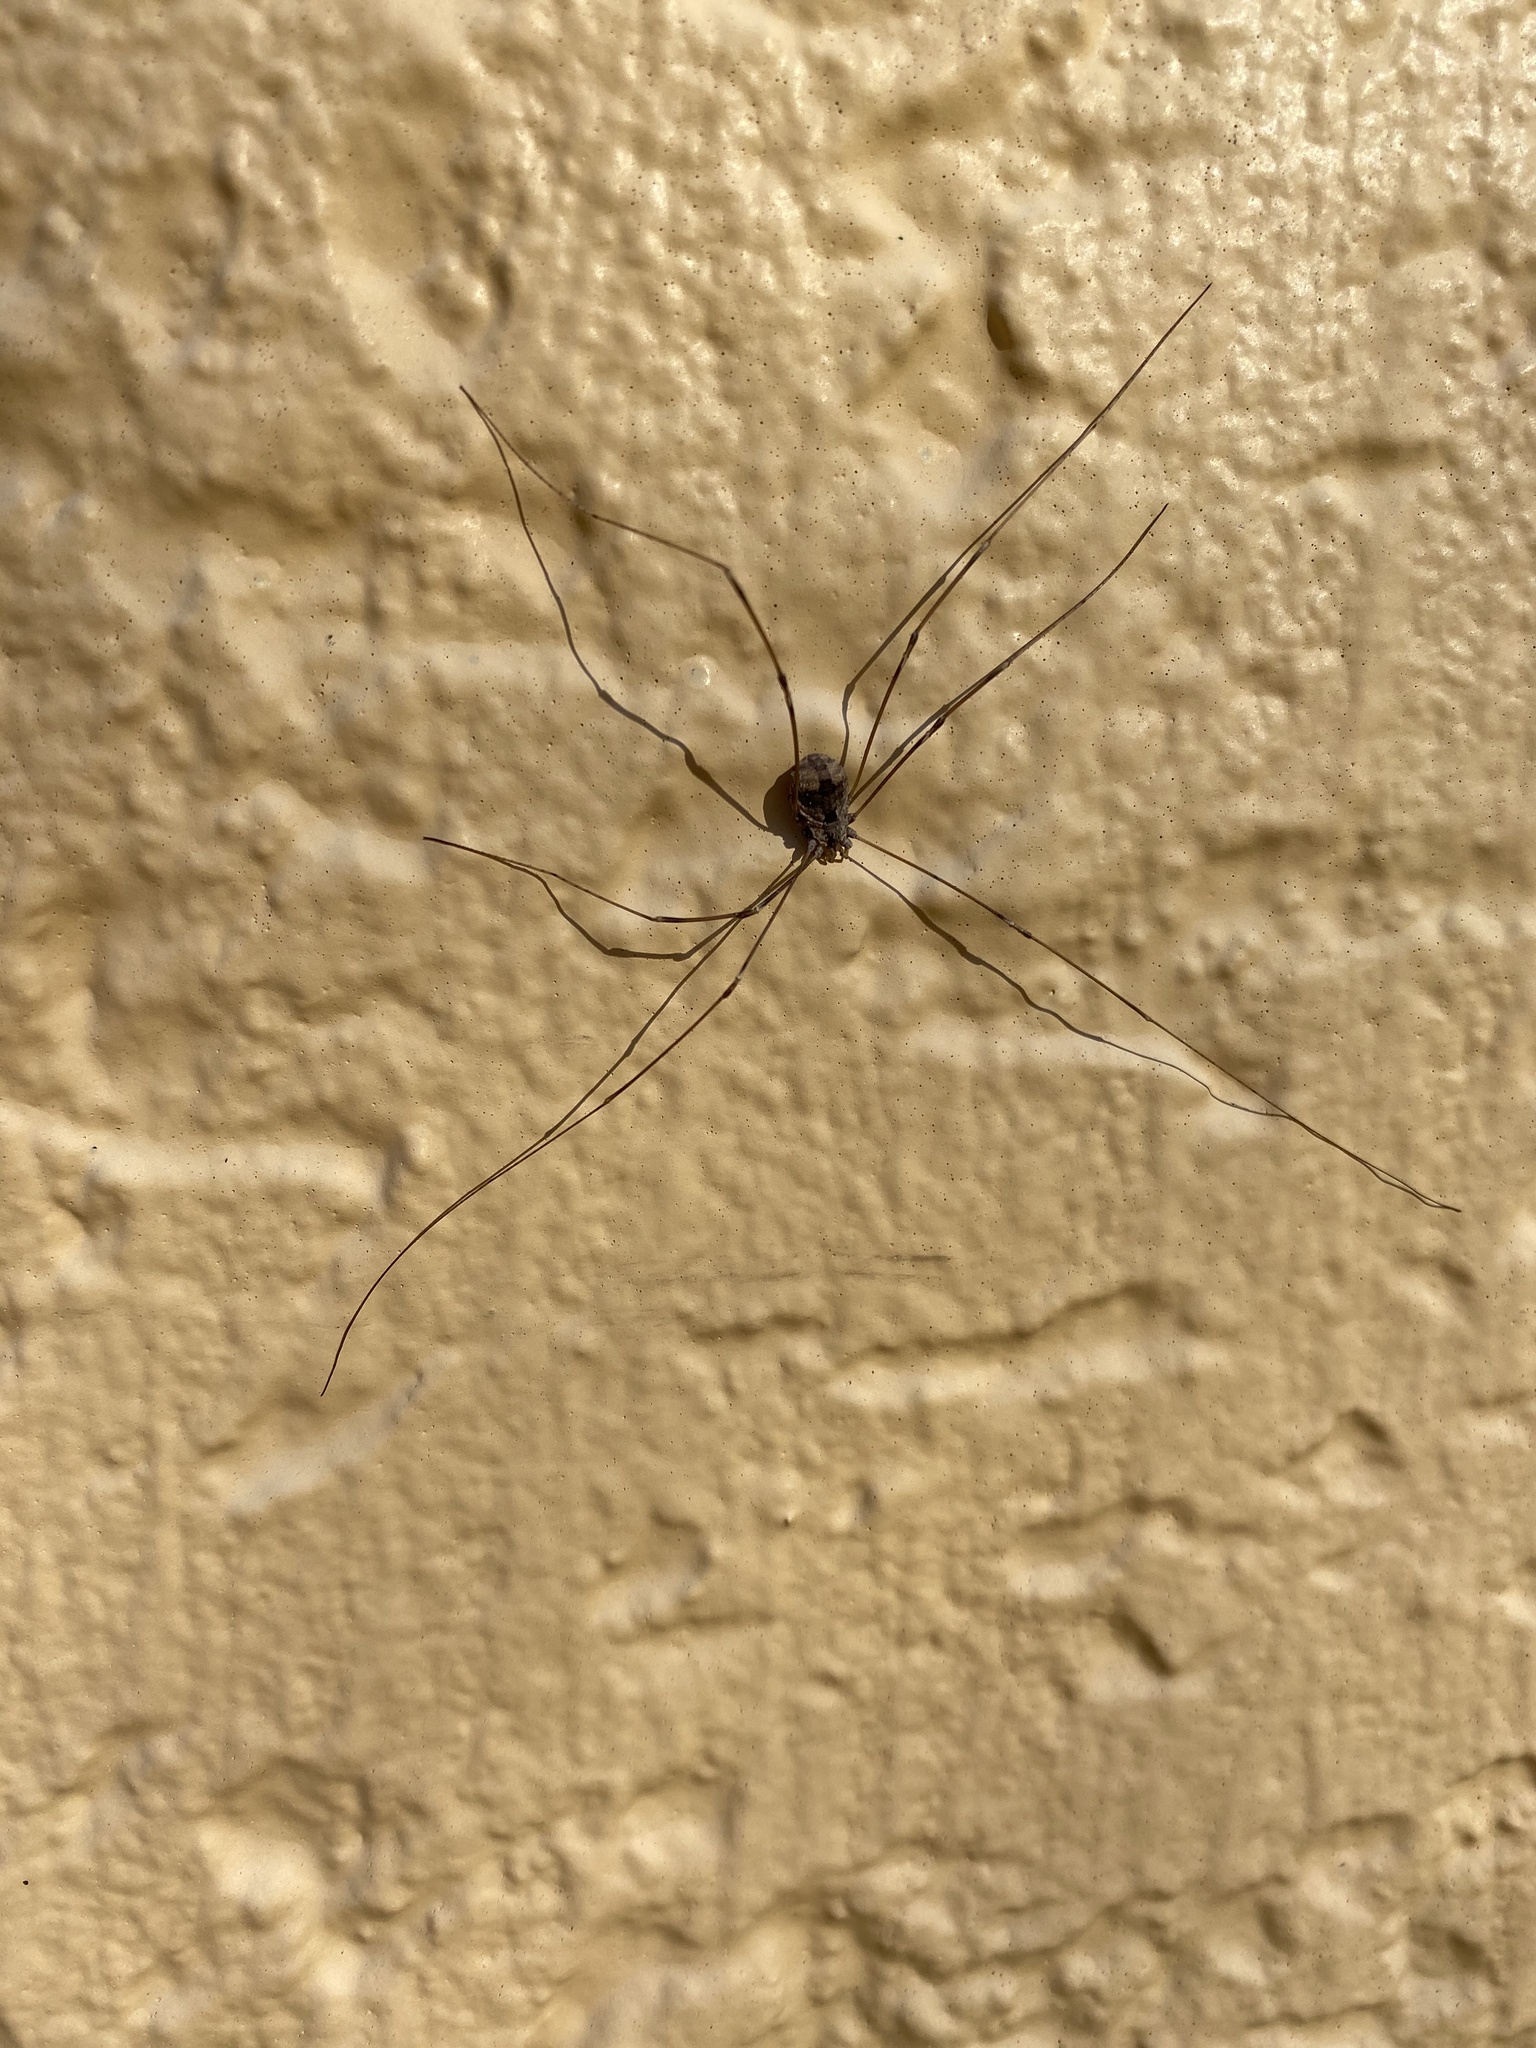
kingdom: Animalia
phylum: Arthropoda
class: Arachnida
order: Opiliones
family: Sclerosomatidae
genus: Leuronychus
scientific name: Leuronychus pacificus
